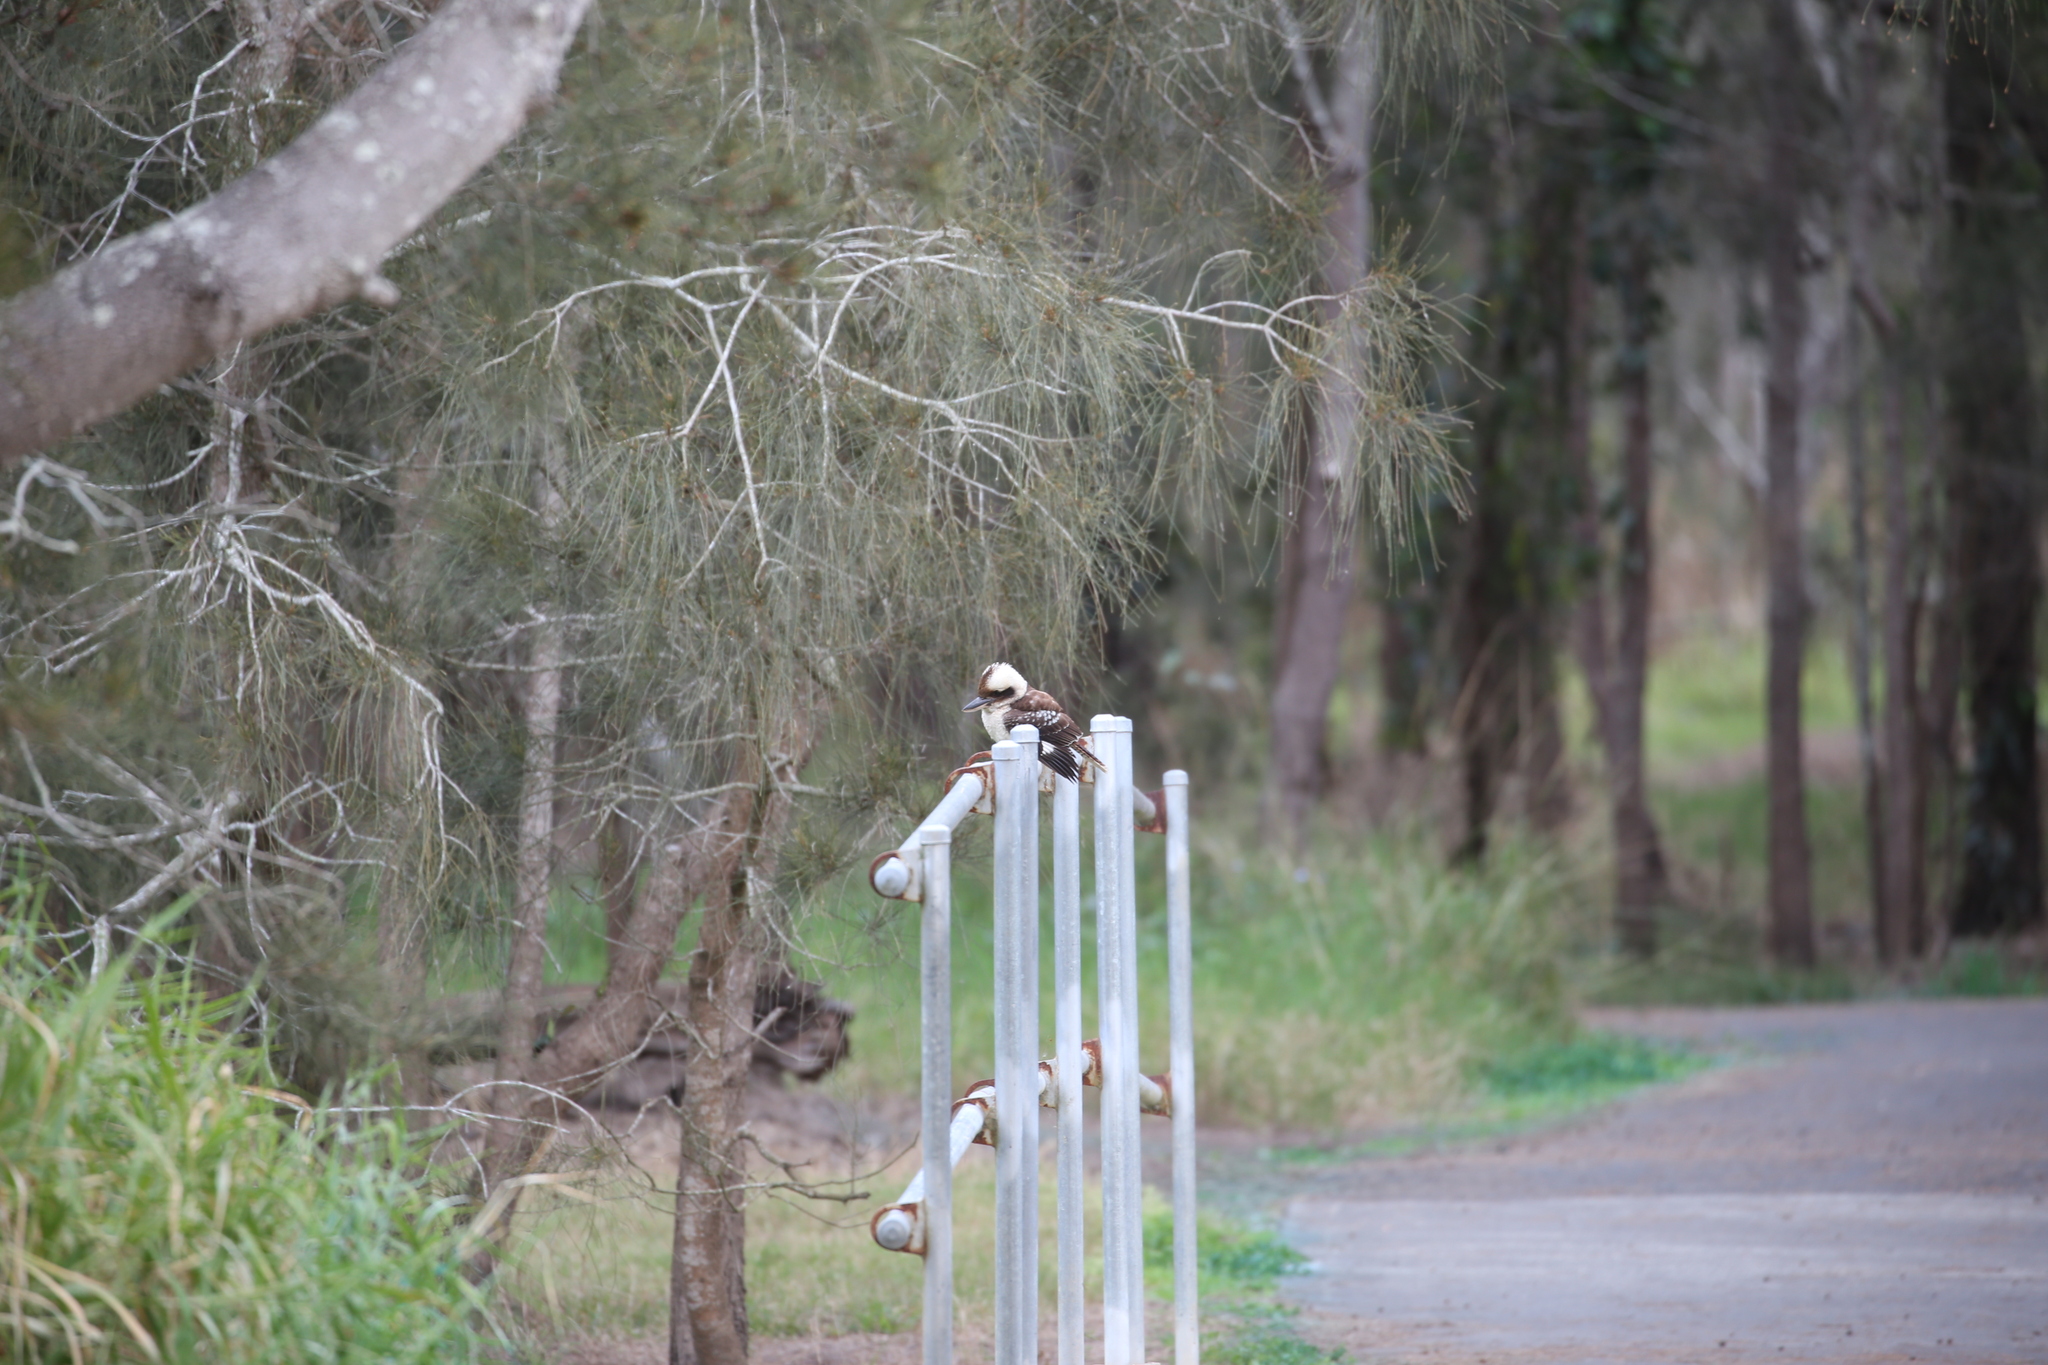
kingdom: Animalia
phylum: Chordata
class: Aves
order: Coraciiformes
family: Alcedinidae
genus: Dacelo
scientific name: Dacelo novaeguineae
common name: Laughing kookaburra
